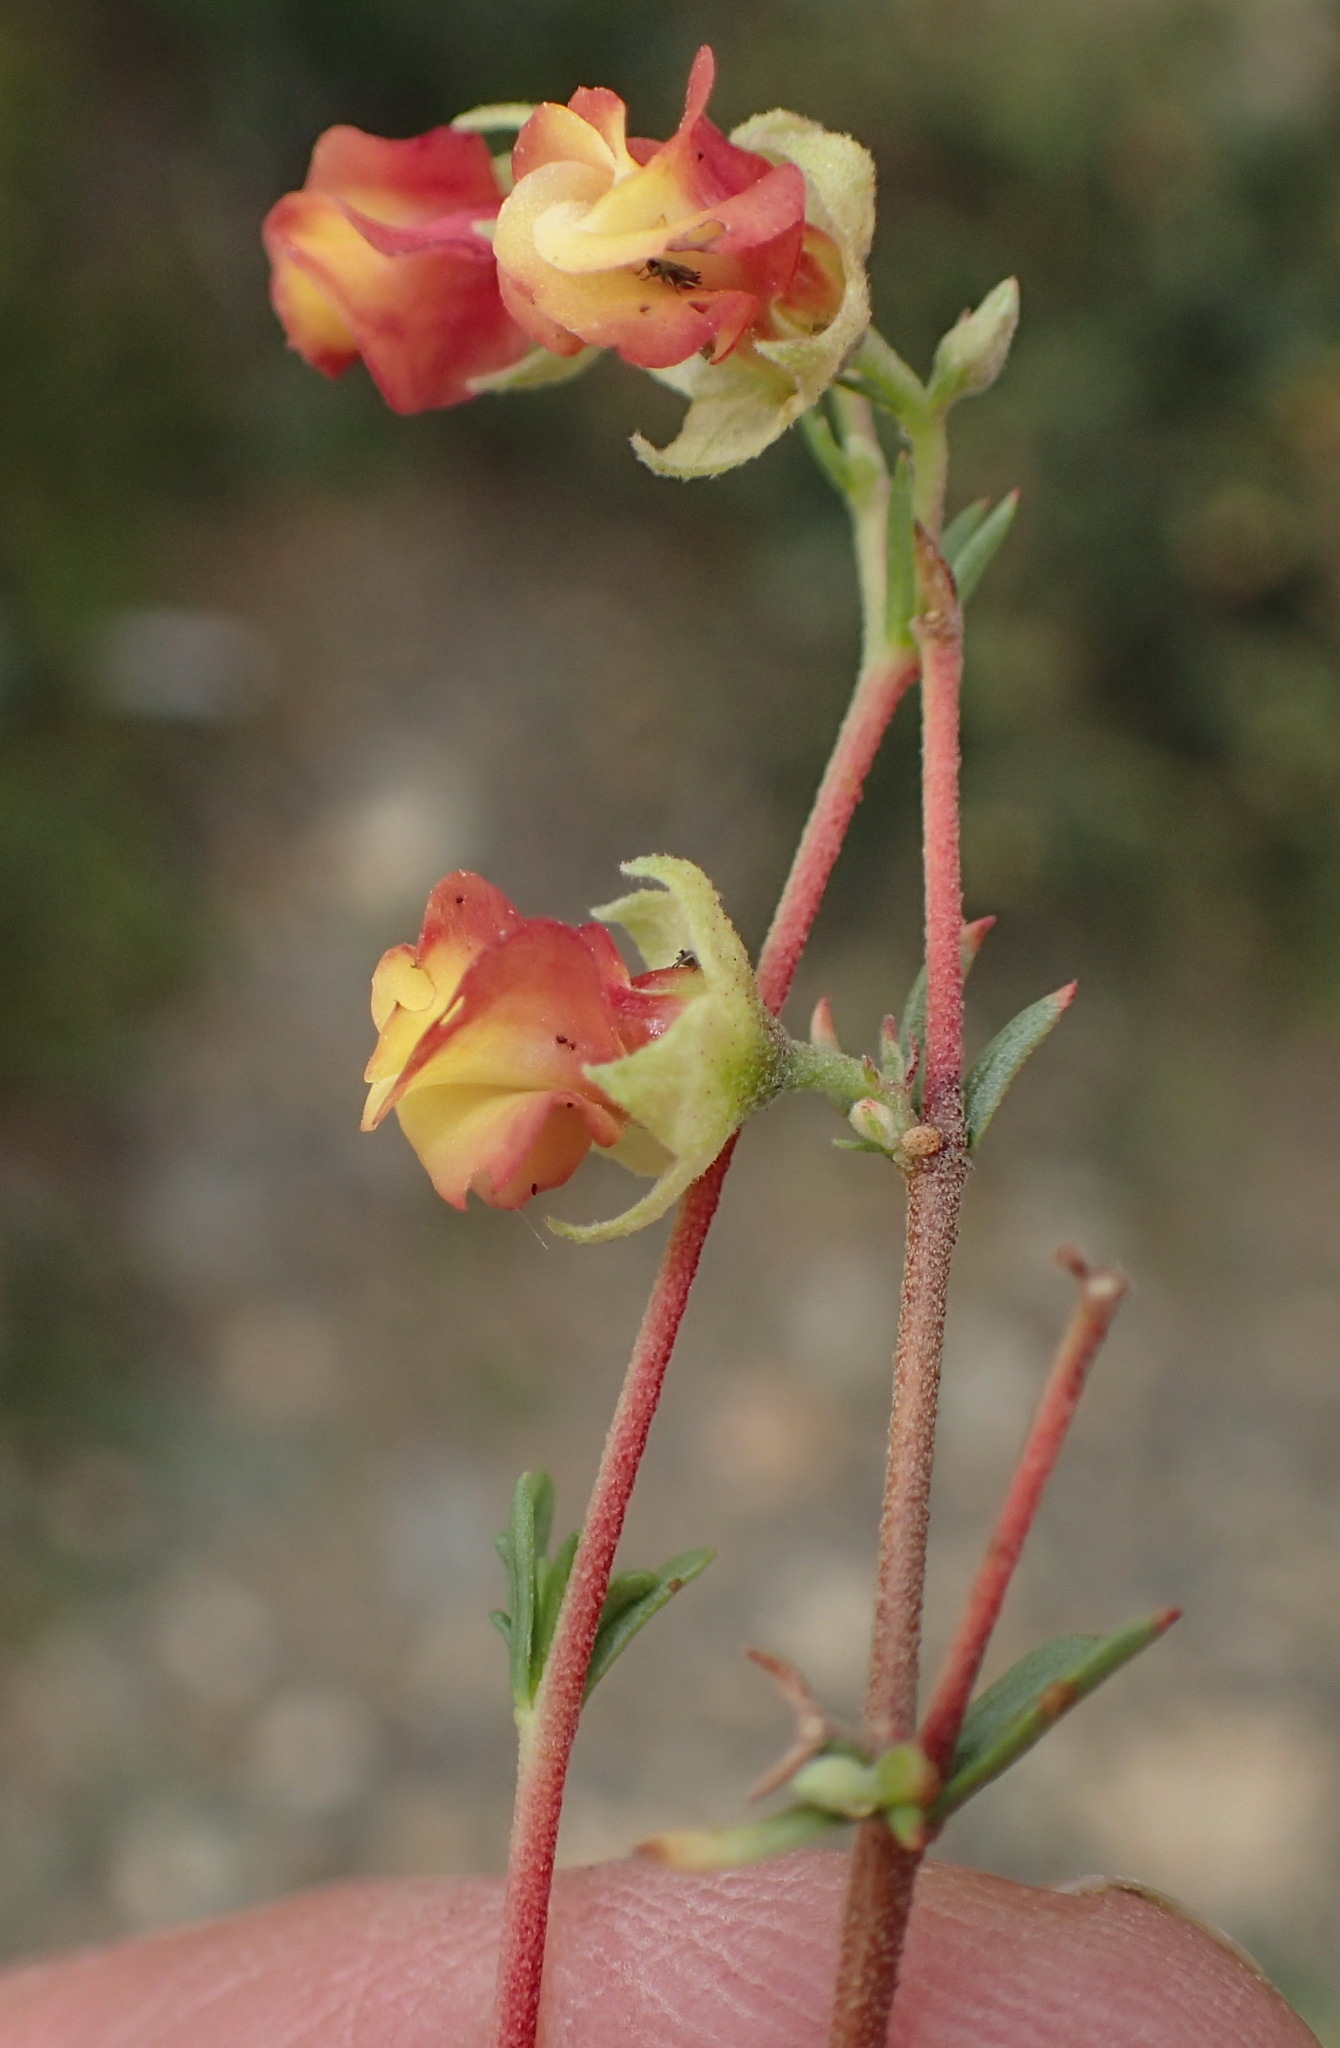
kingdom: Plantae
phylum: Tracheophyta
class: Magnoliopsida
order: Malvales
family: Malvaceae
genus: Hermannia
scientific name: Hermannia filifolia
